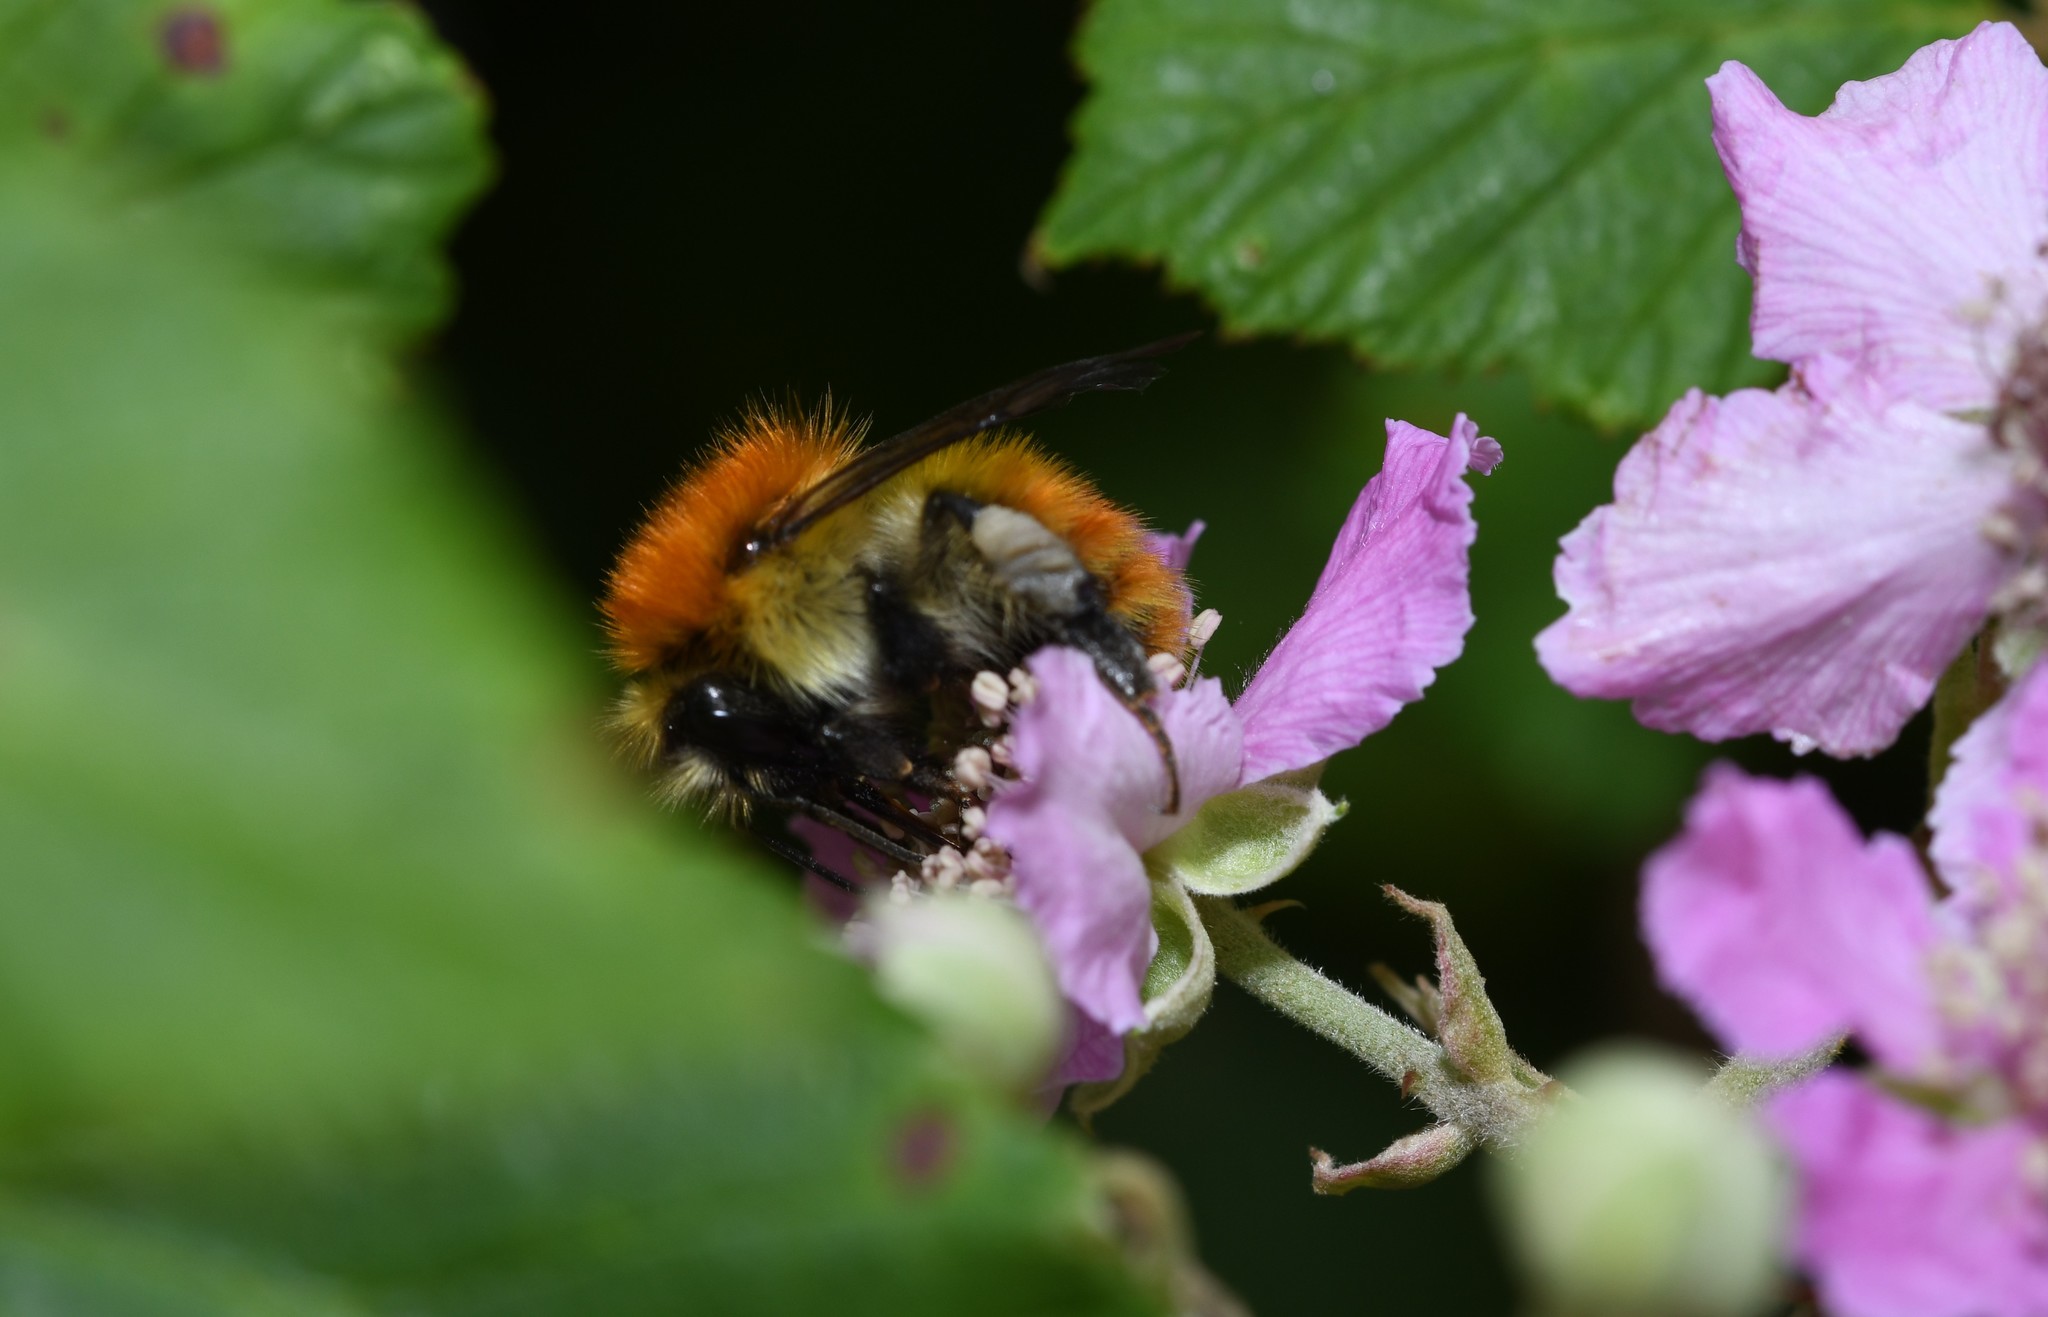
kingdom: Animalia
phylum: Arthropoda
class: Insecta
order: Hymenoptera
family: Apidae
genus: Bombus
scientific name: Bombus pascuorum
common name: Common carder bee
